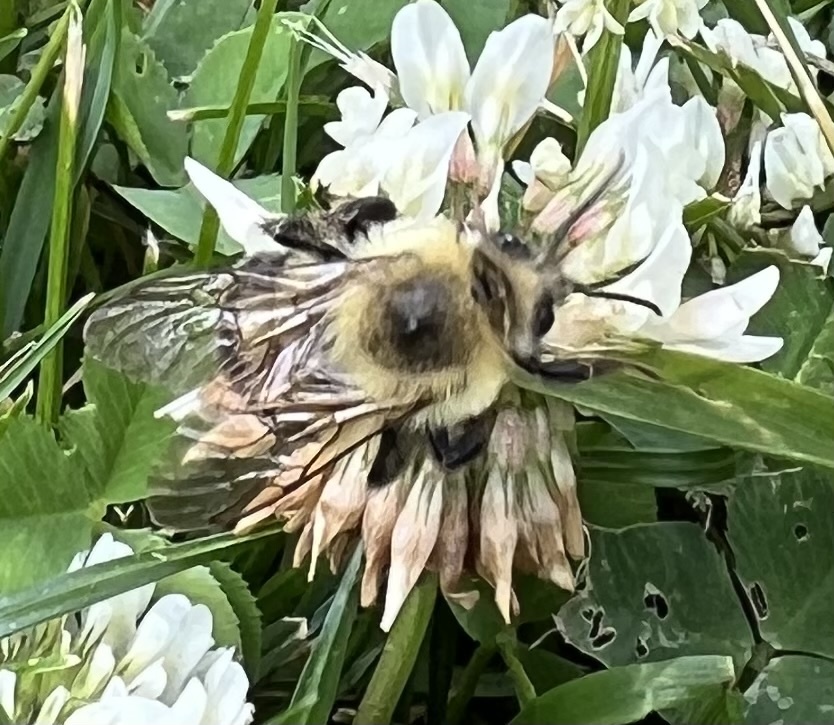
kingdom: Animalia
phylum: Arthropoda
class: Insecta
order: Hymenoptera
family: Apidae
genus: Bombus
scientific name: Bombus bimaculatus
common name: Two-spotted bumble bee
